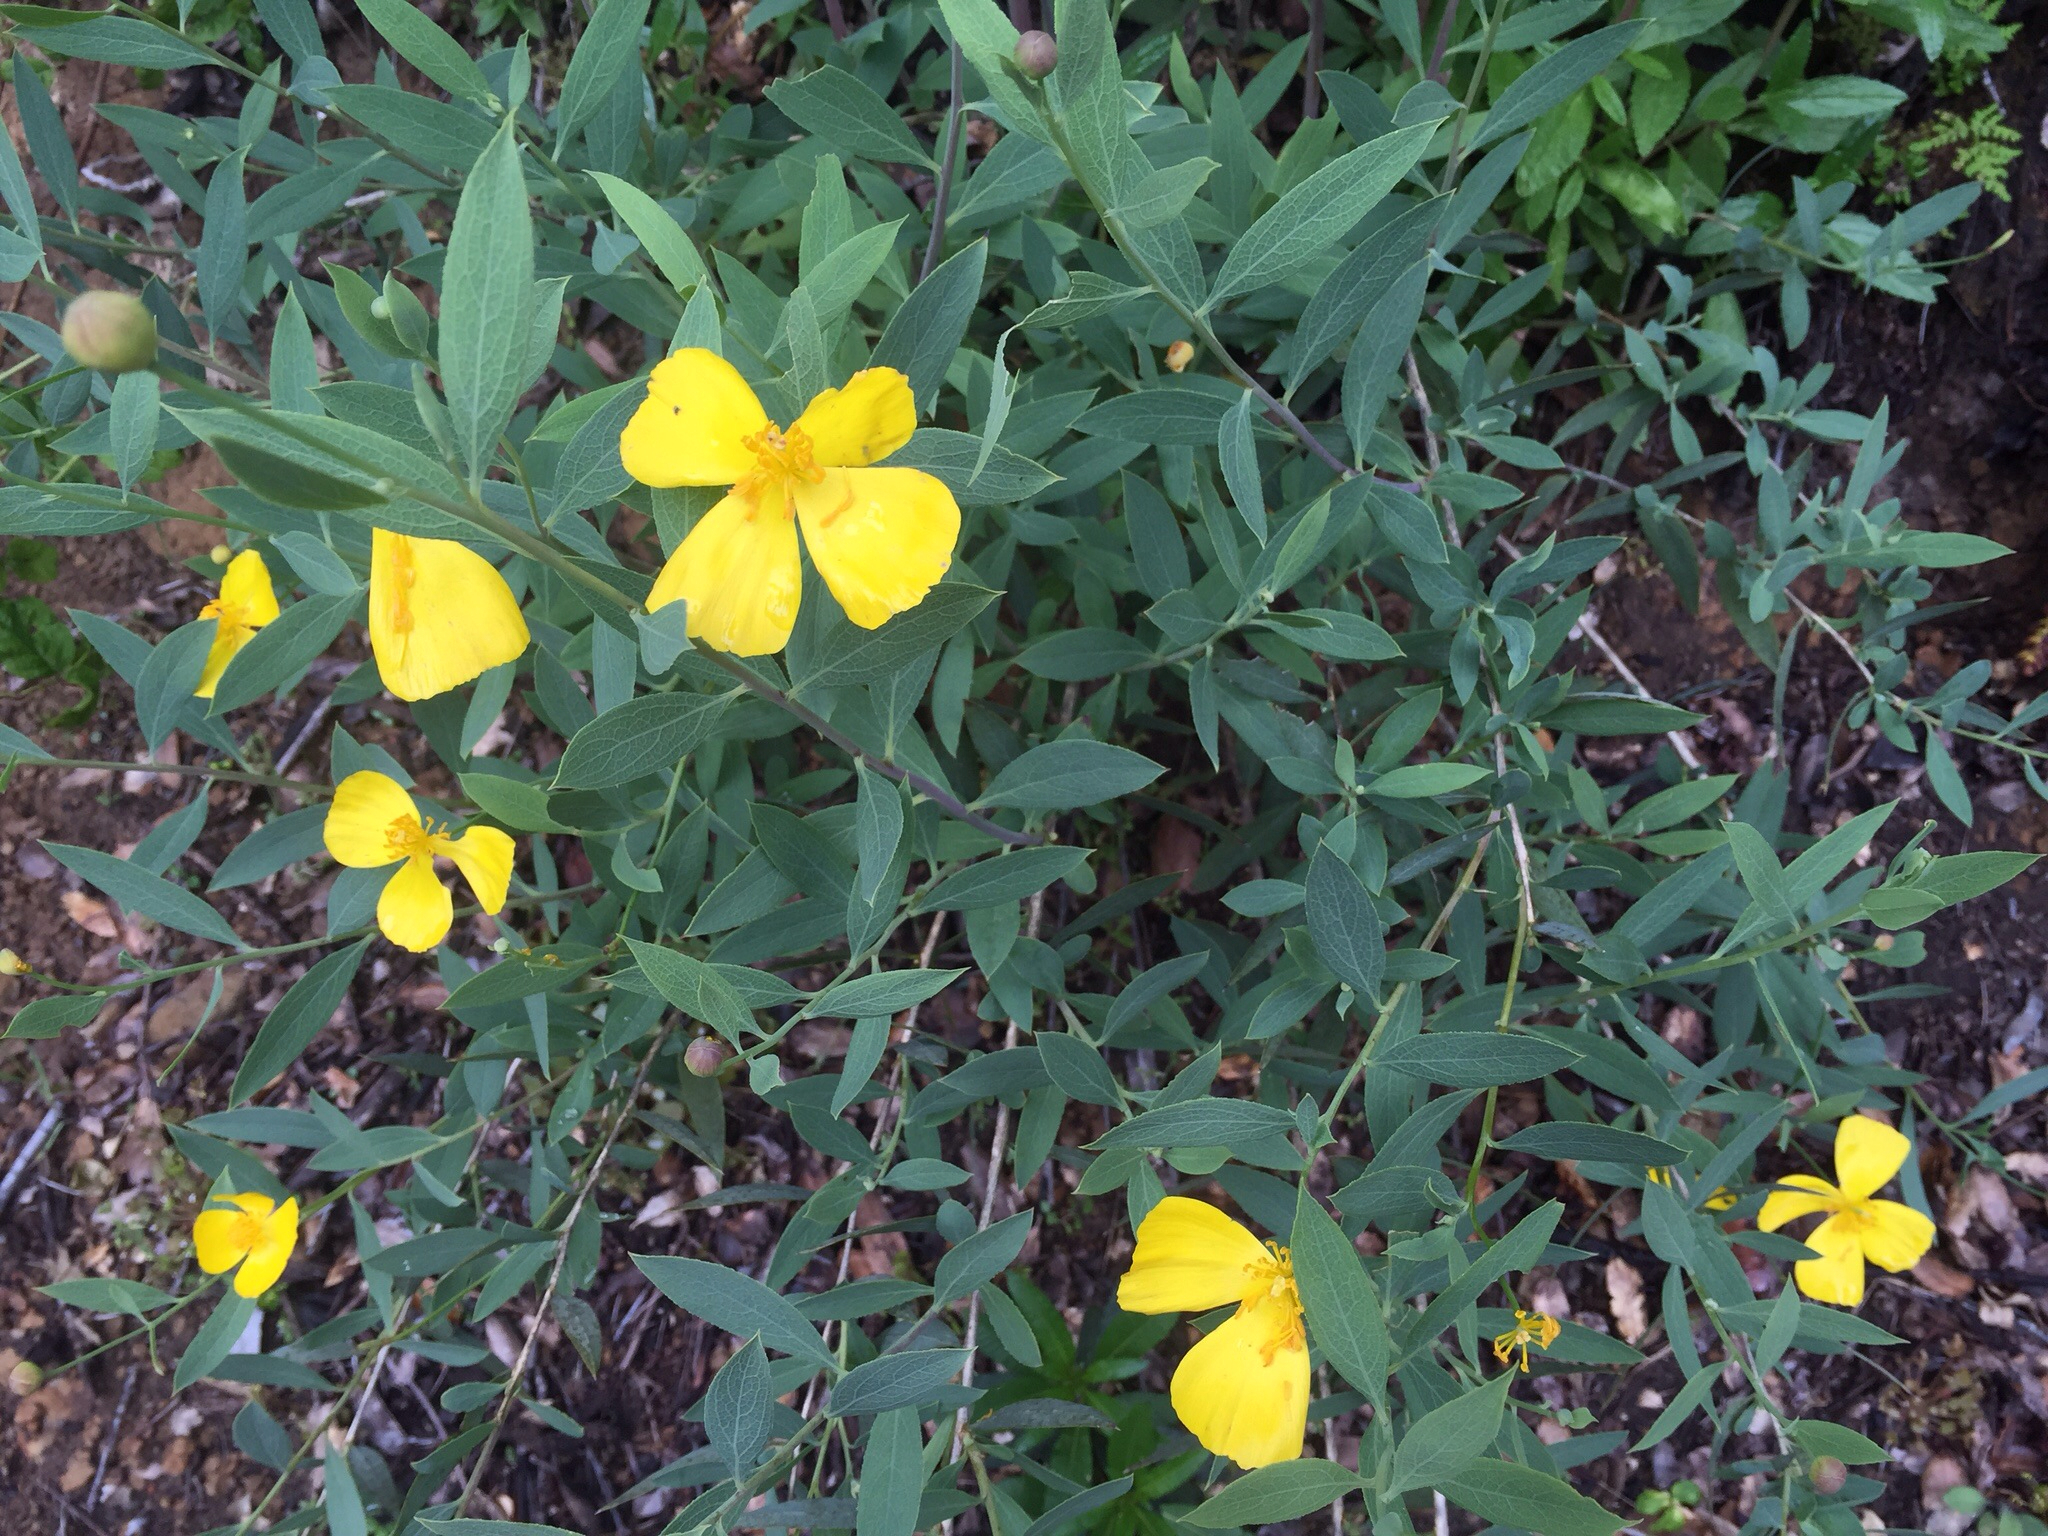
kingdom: Plantae
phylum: Tracheophyta
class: Magnoliopsida
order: Ranunculales
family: Papaveraceae
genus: Dendromecon
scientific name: Dendromecon rigida
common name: Tree poppy
